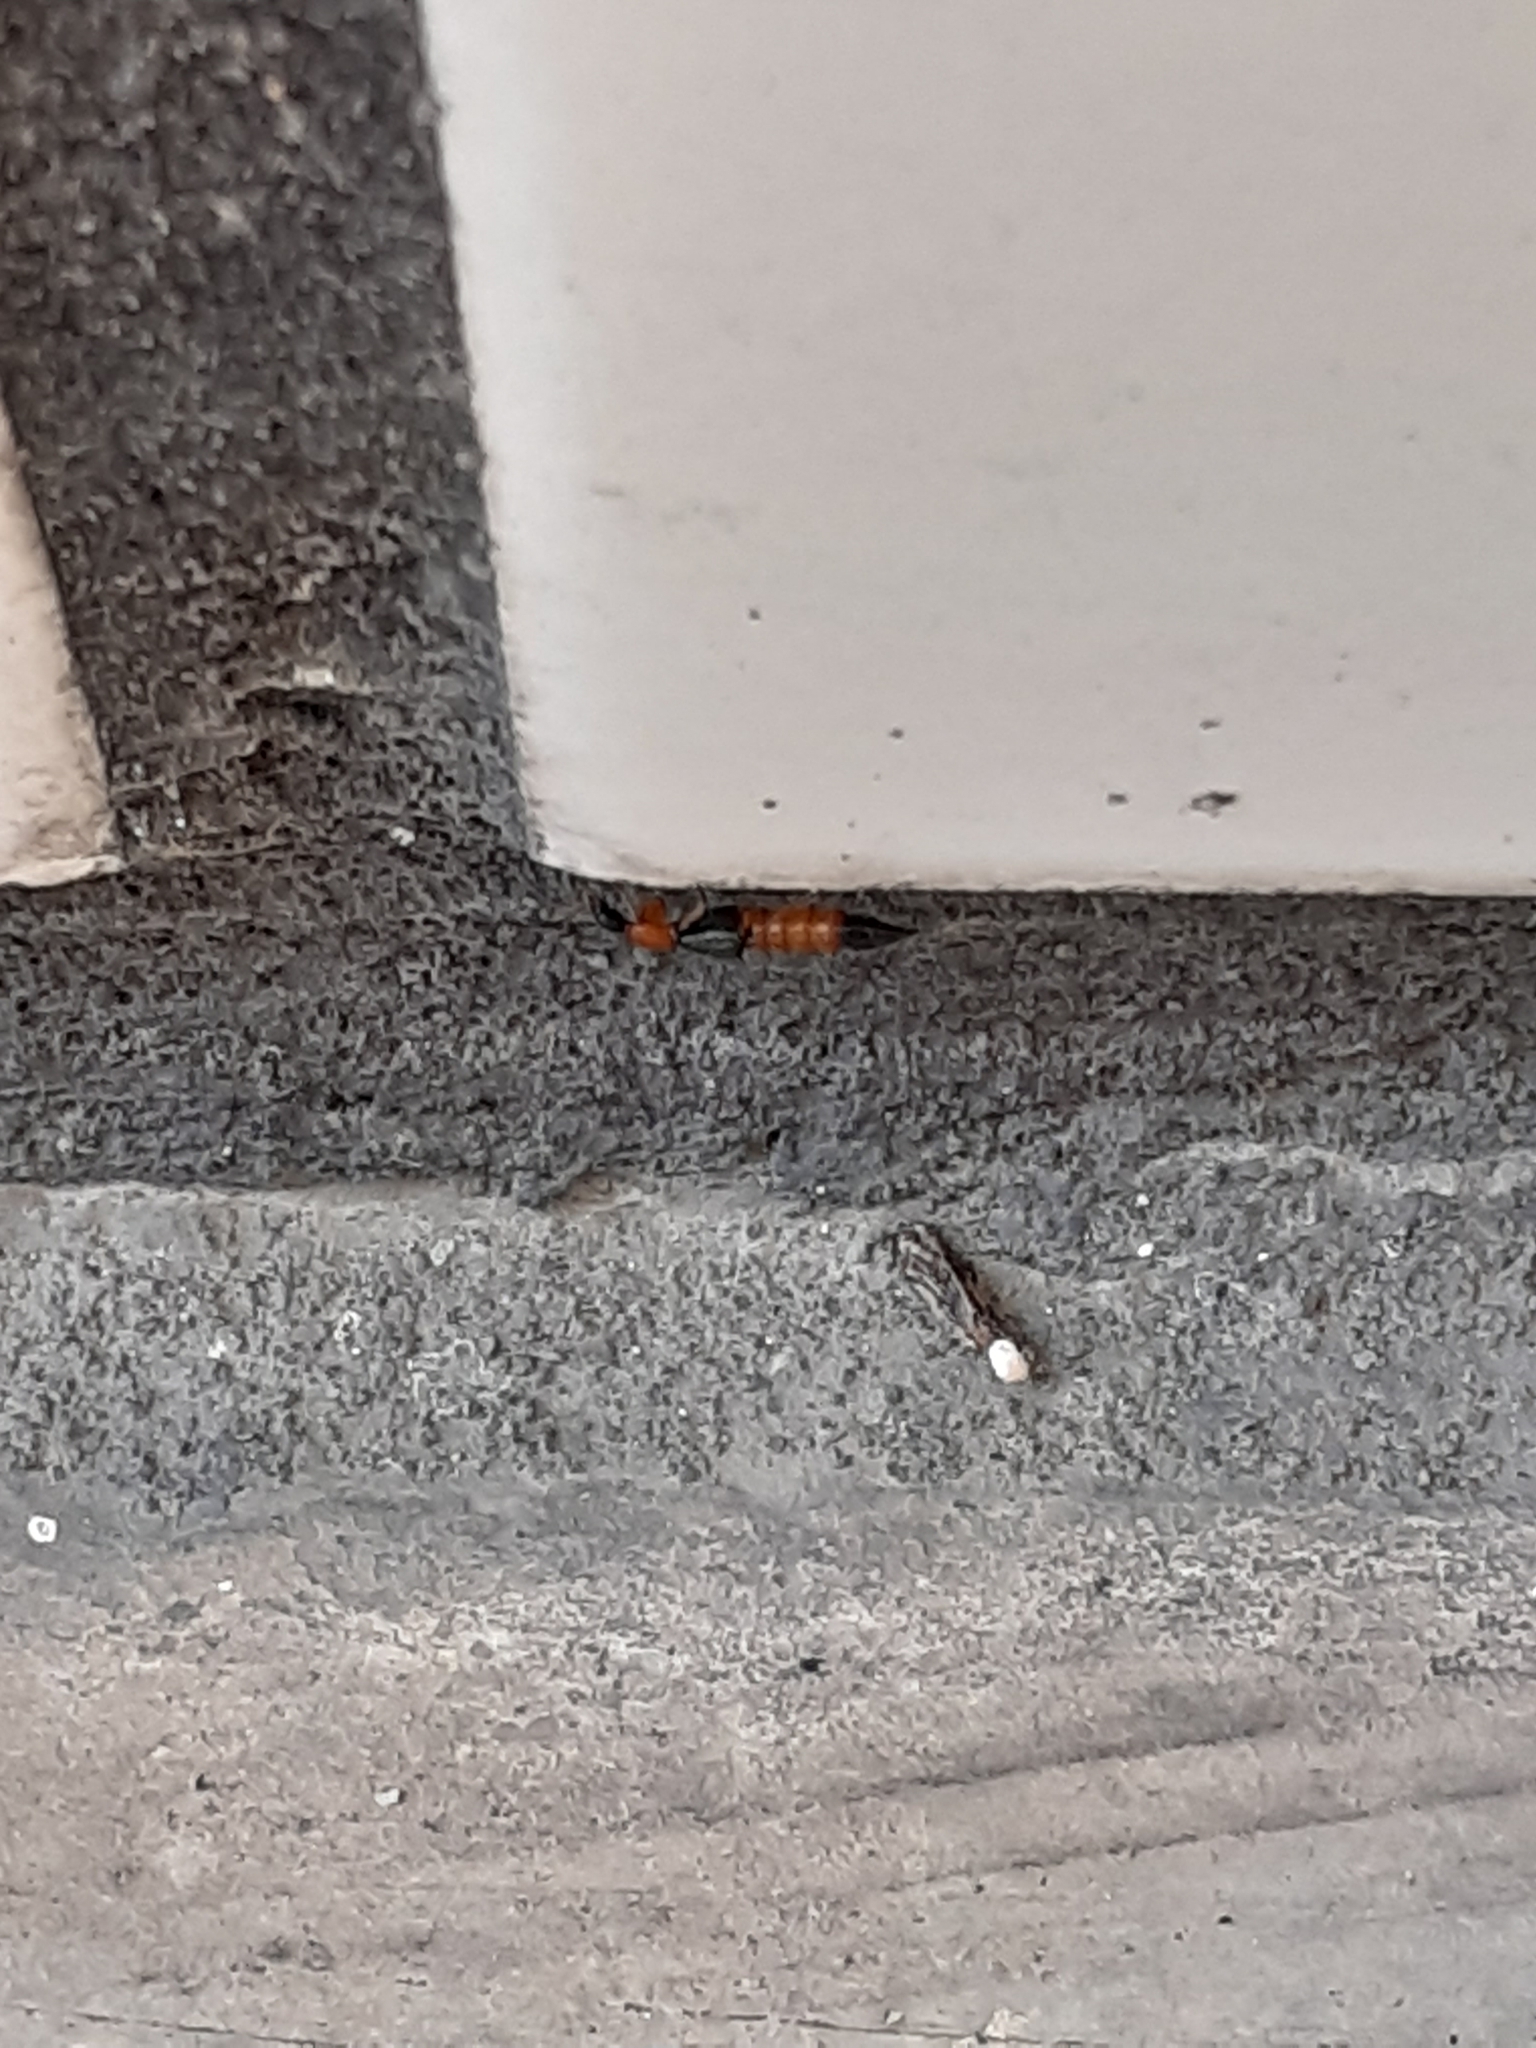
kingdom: Animalia
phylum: Arthropoda
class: Insecta
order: Coleoptera
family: Staphylinidae
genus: Paederus
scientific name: Paederus fuscipes
